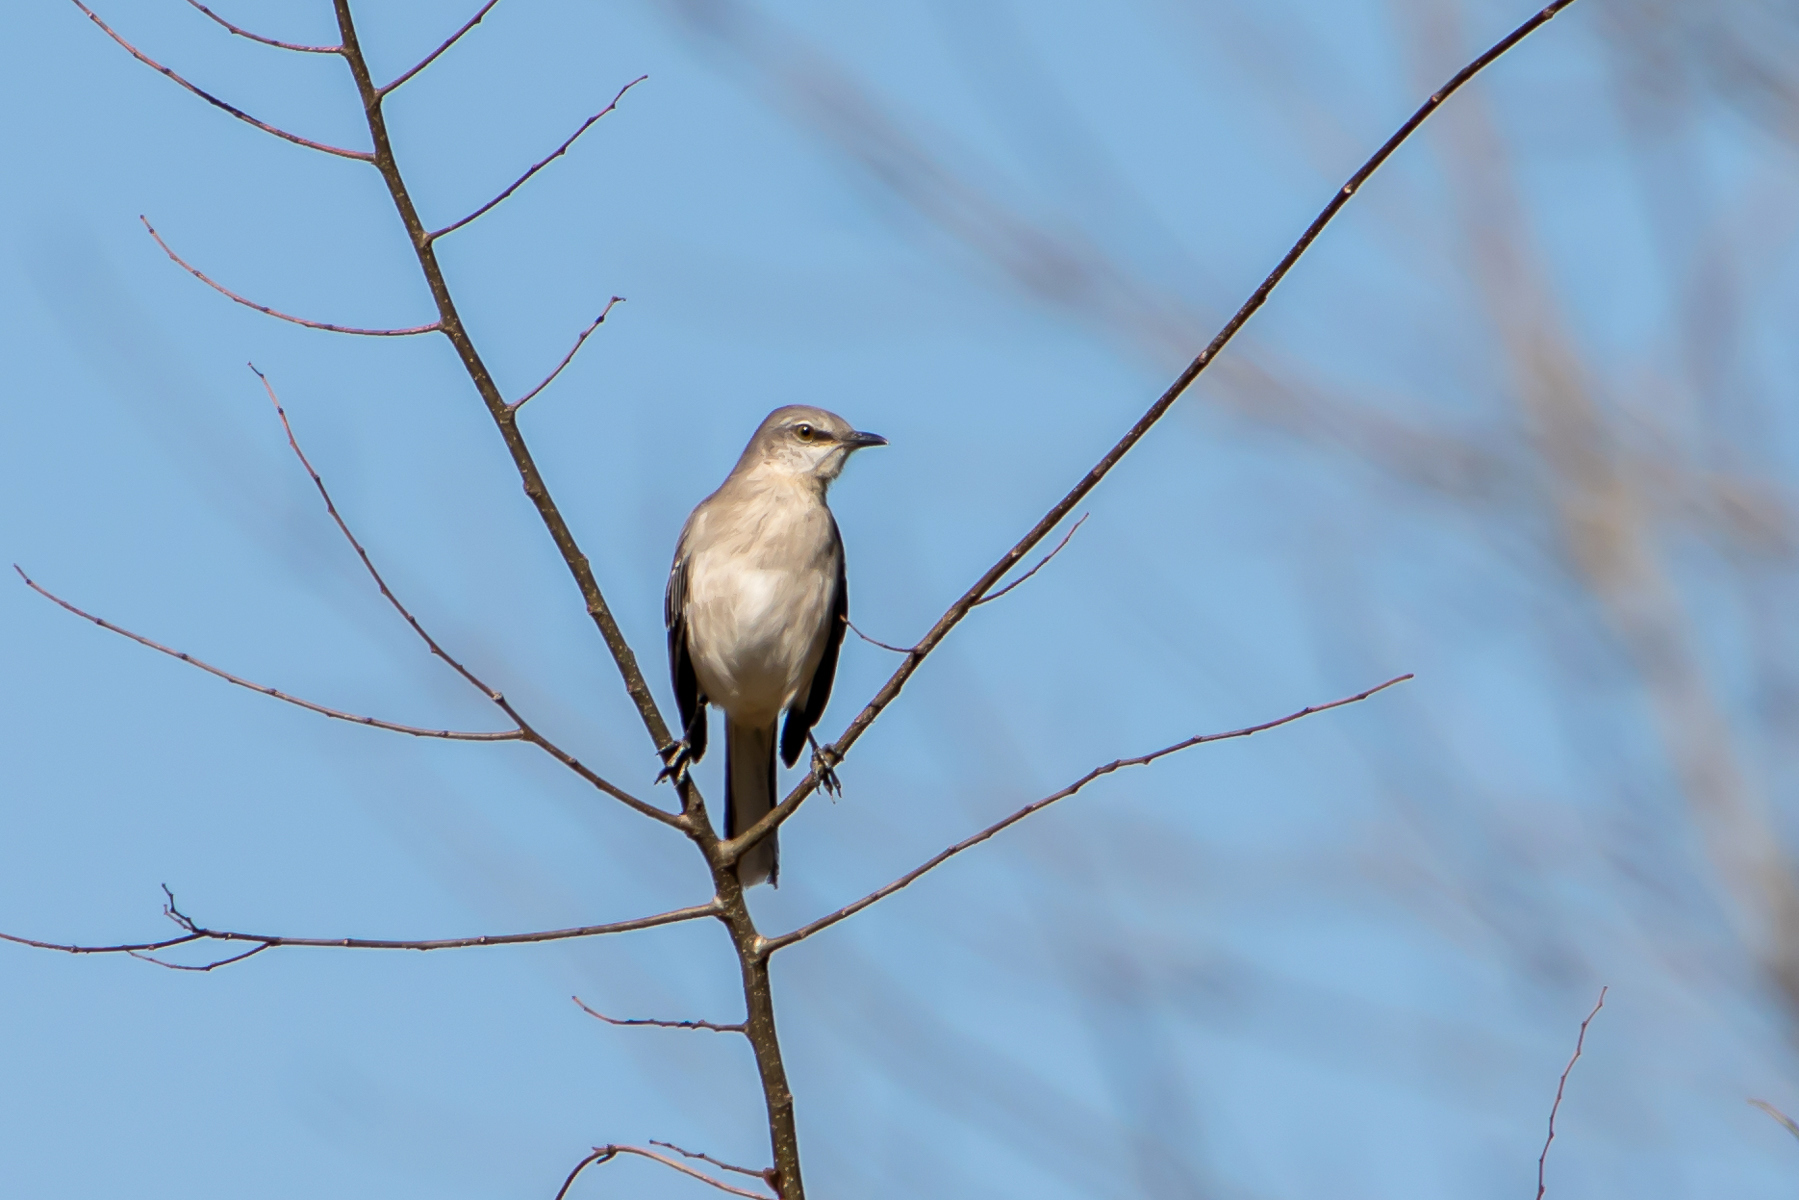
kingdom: Animalia
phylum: Chordata
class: Aves
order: Passeriformes
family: Mimidae
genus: Mimus
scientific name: Mimus polyglottos
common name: Northern mockingbird
